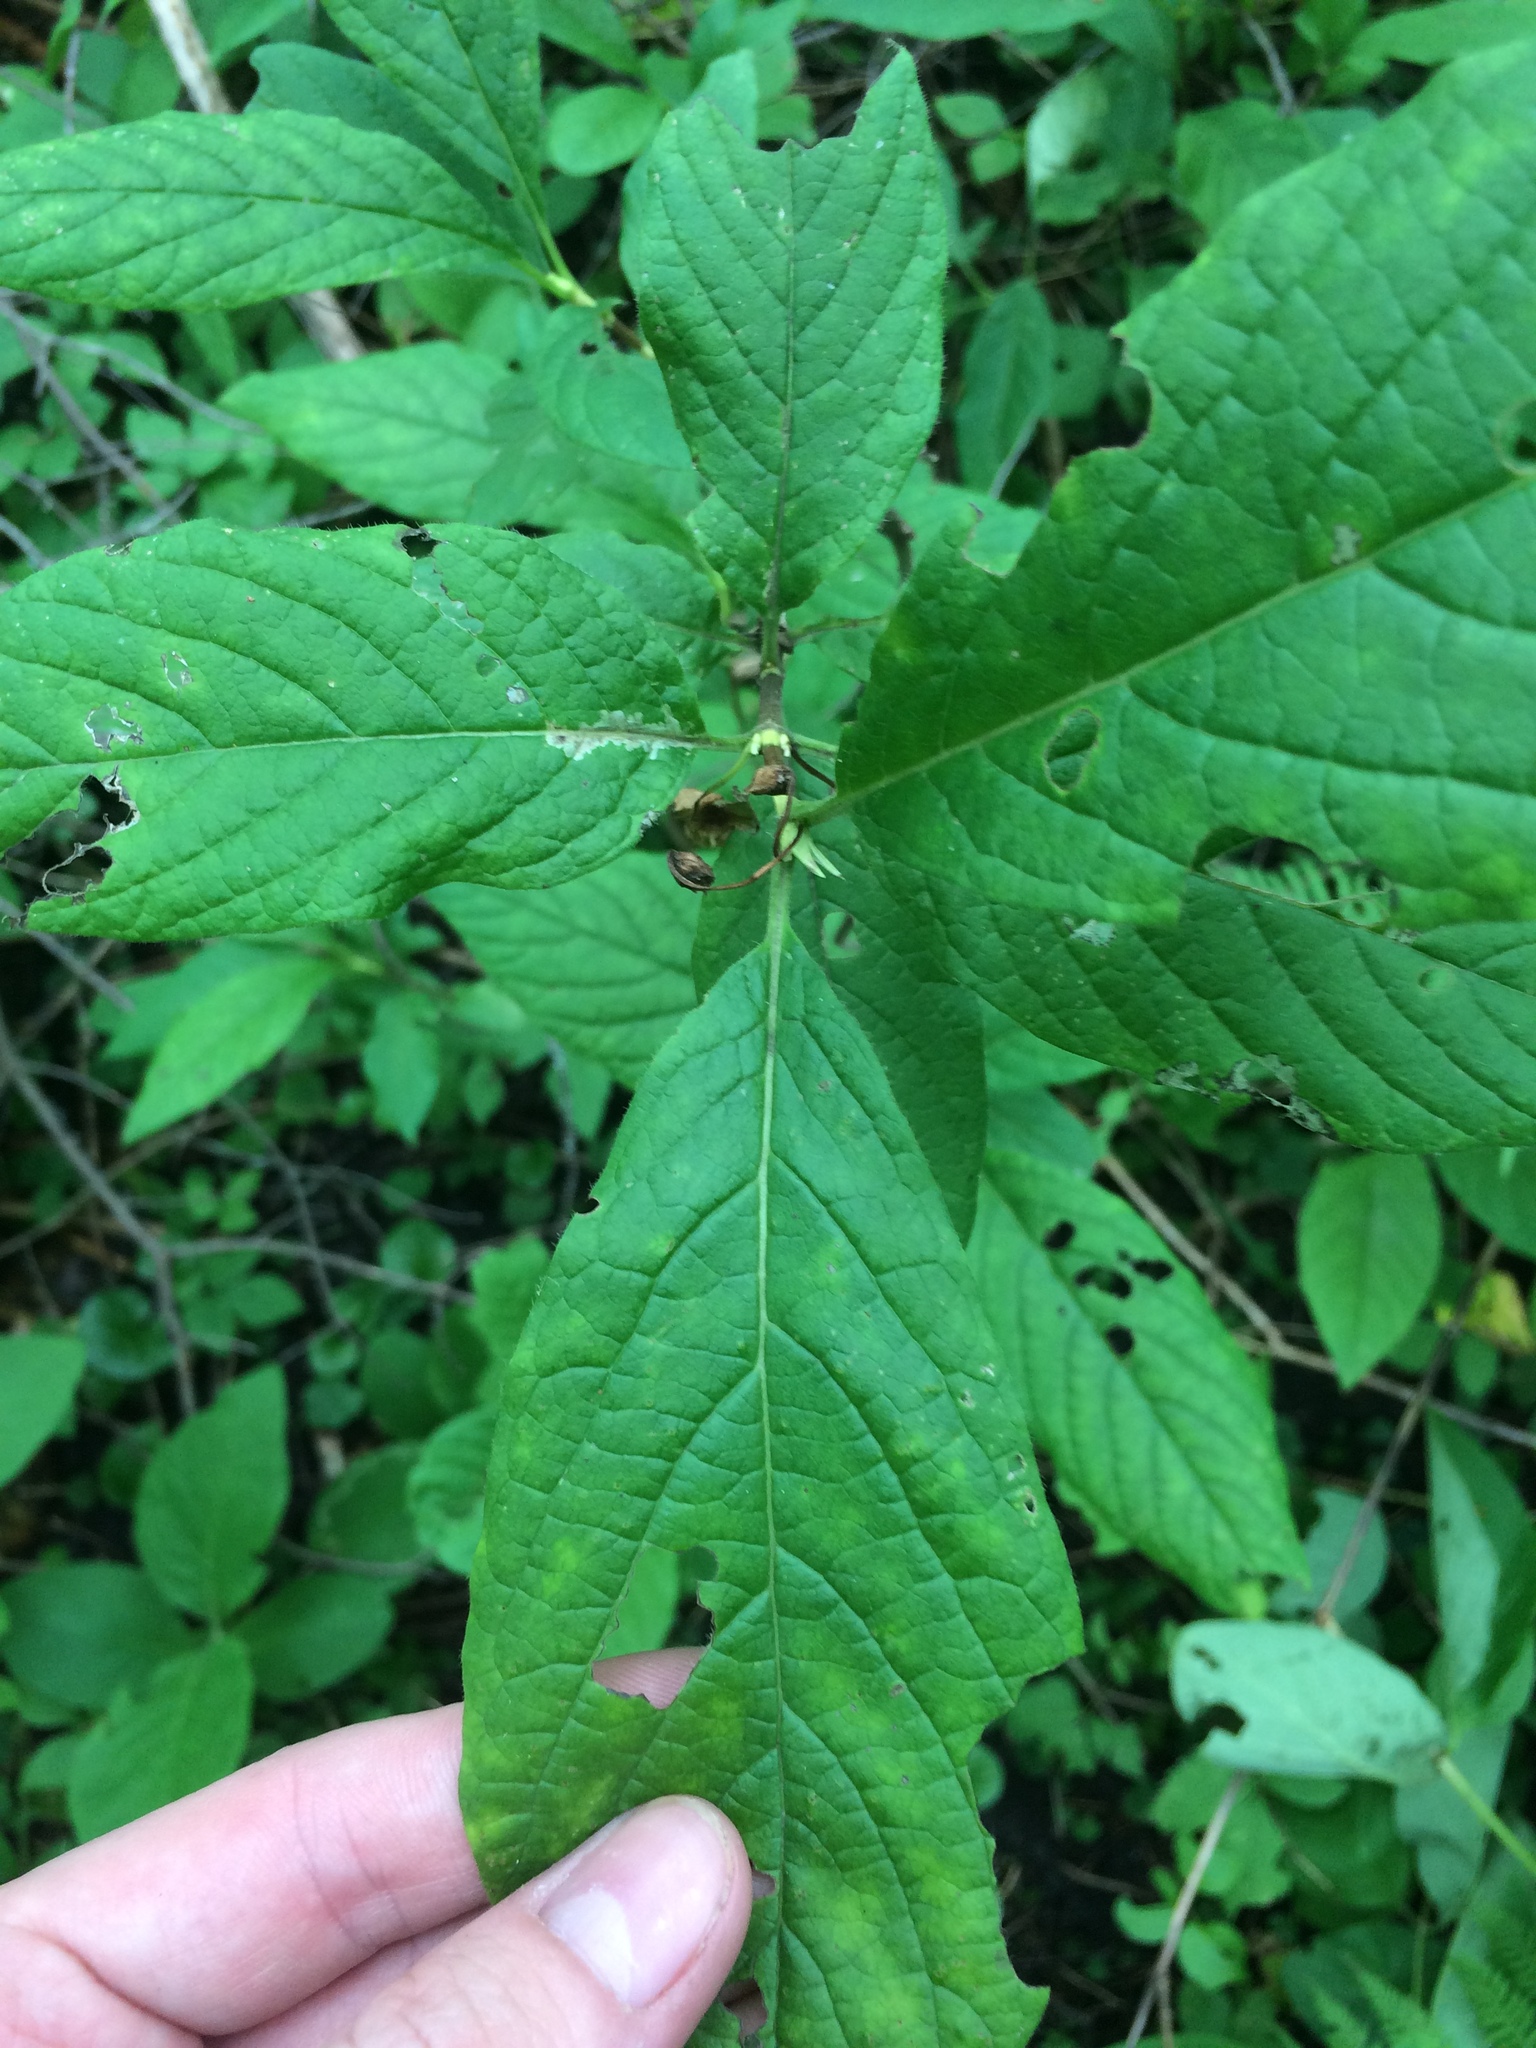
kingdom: Plantae
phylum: Tracheophyta
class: Magnoliopsida
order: Dipsacales
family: Caprifoliaceae
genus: Lonicera
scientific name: Lonicera involucrata
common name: Californian honeysuckle
